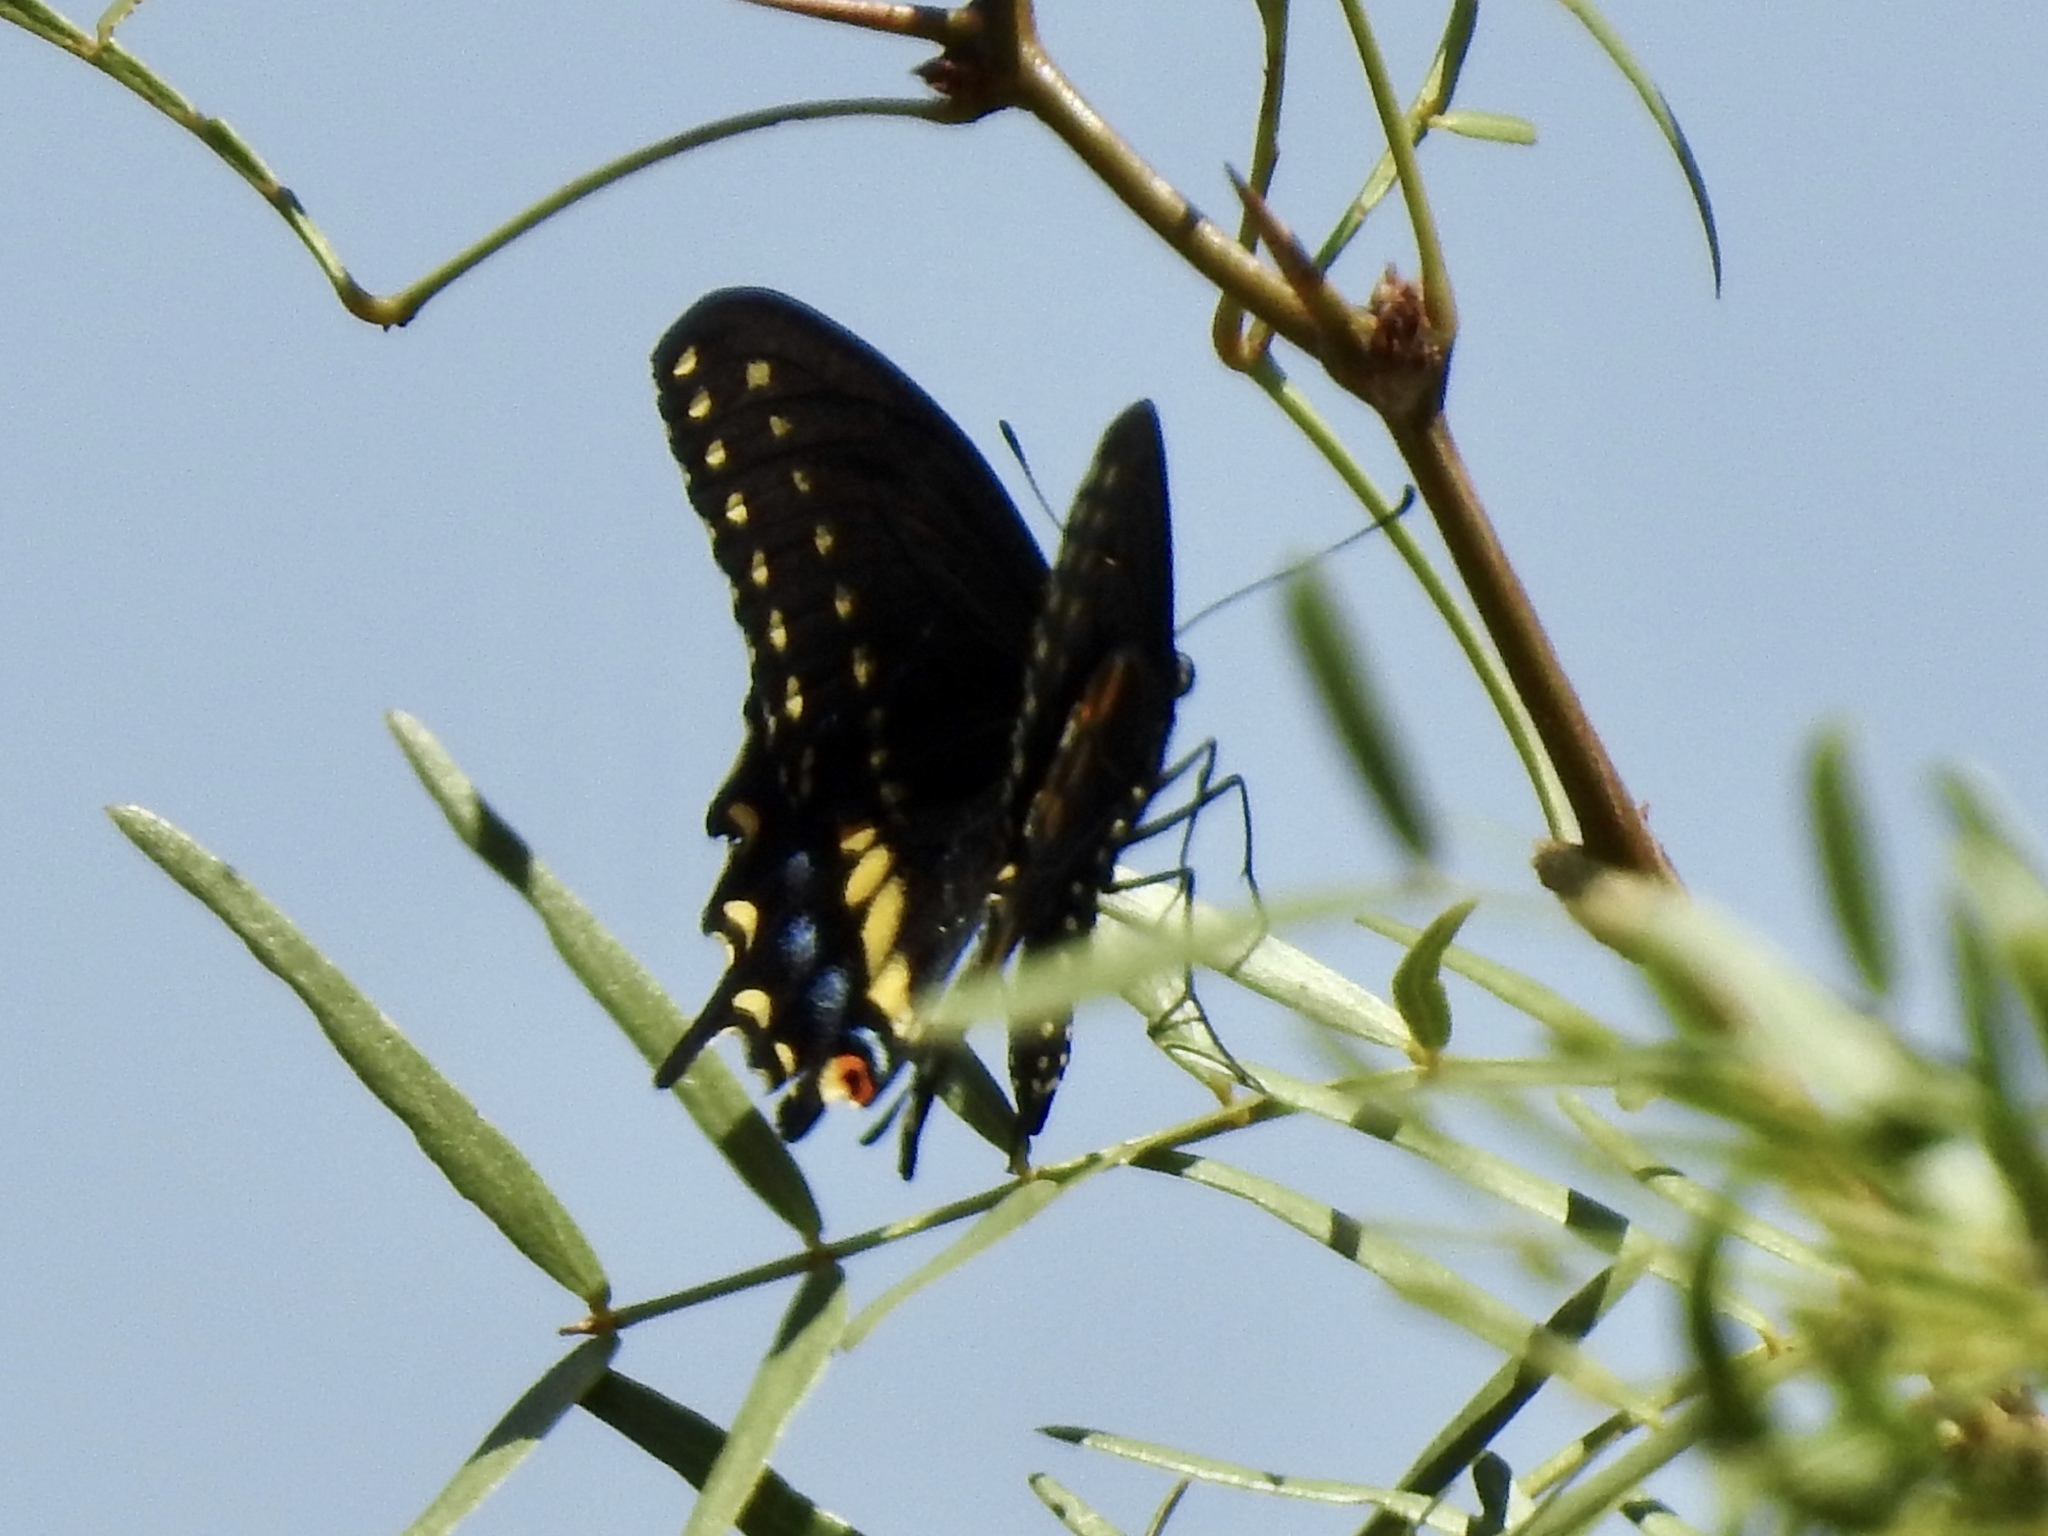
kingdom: Animalia
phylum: Arthropoda
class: Insecta
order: Lepidoptera
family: Papilionidae
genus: Papilio
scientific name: Papilio polyxenes
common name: Black swallowtail
